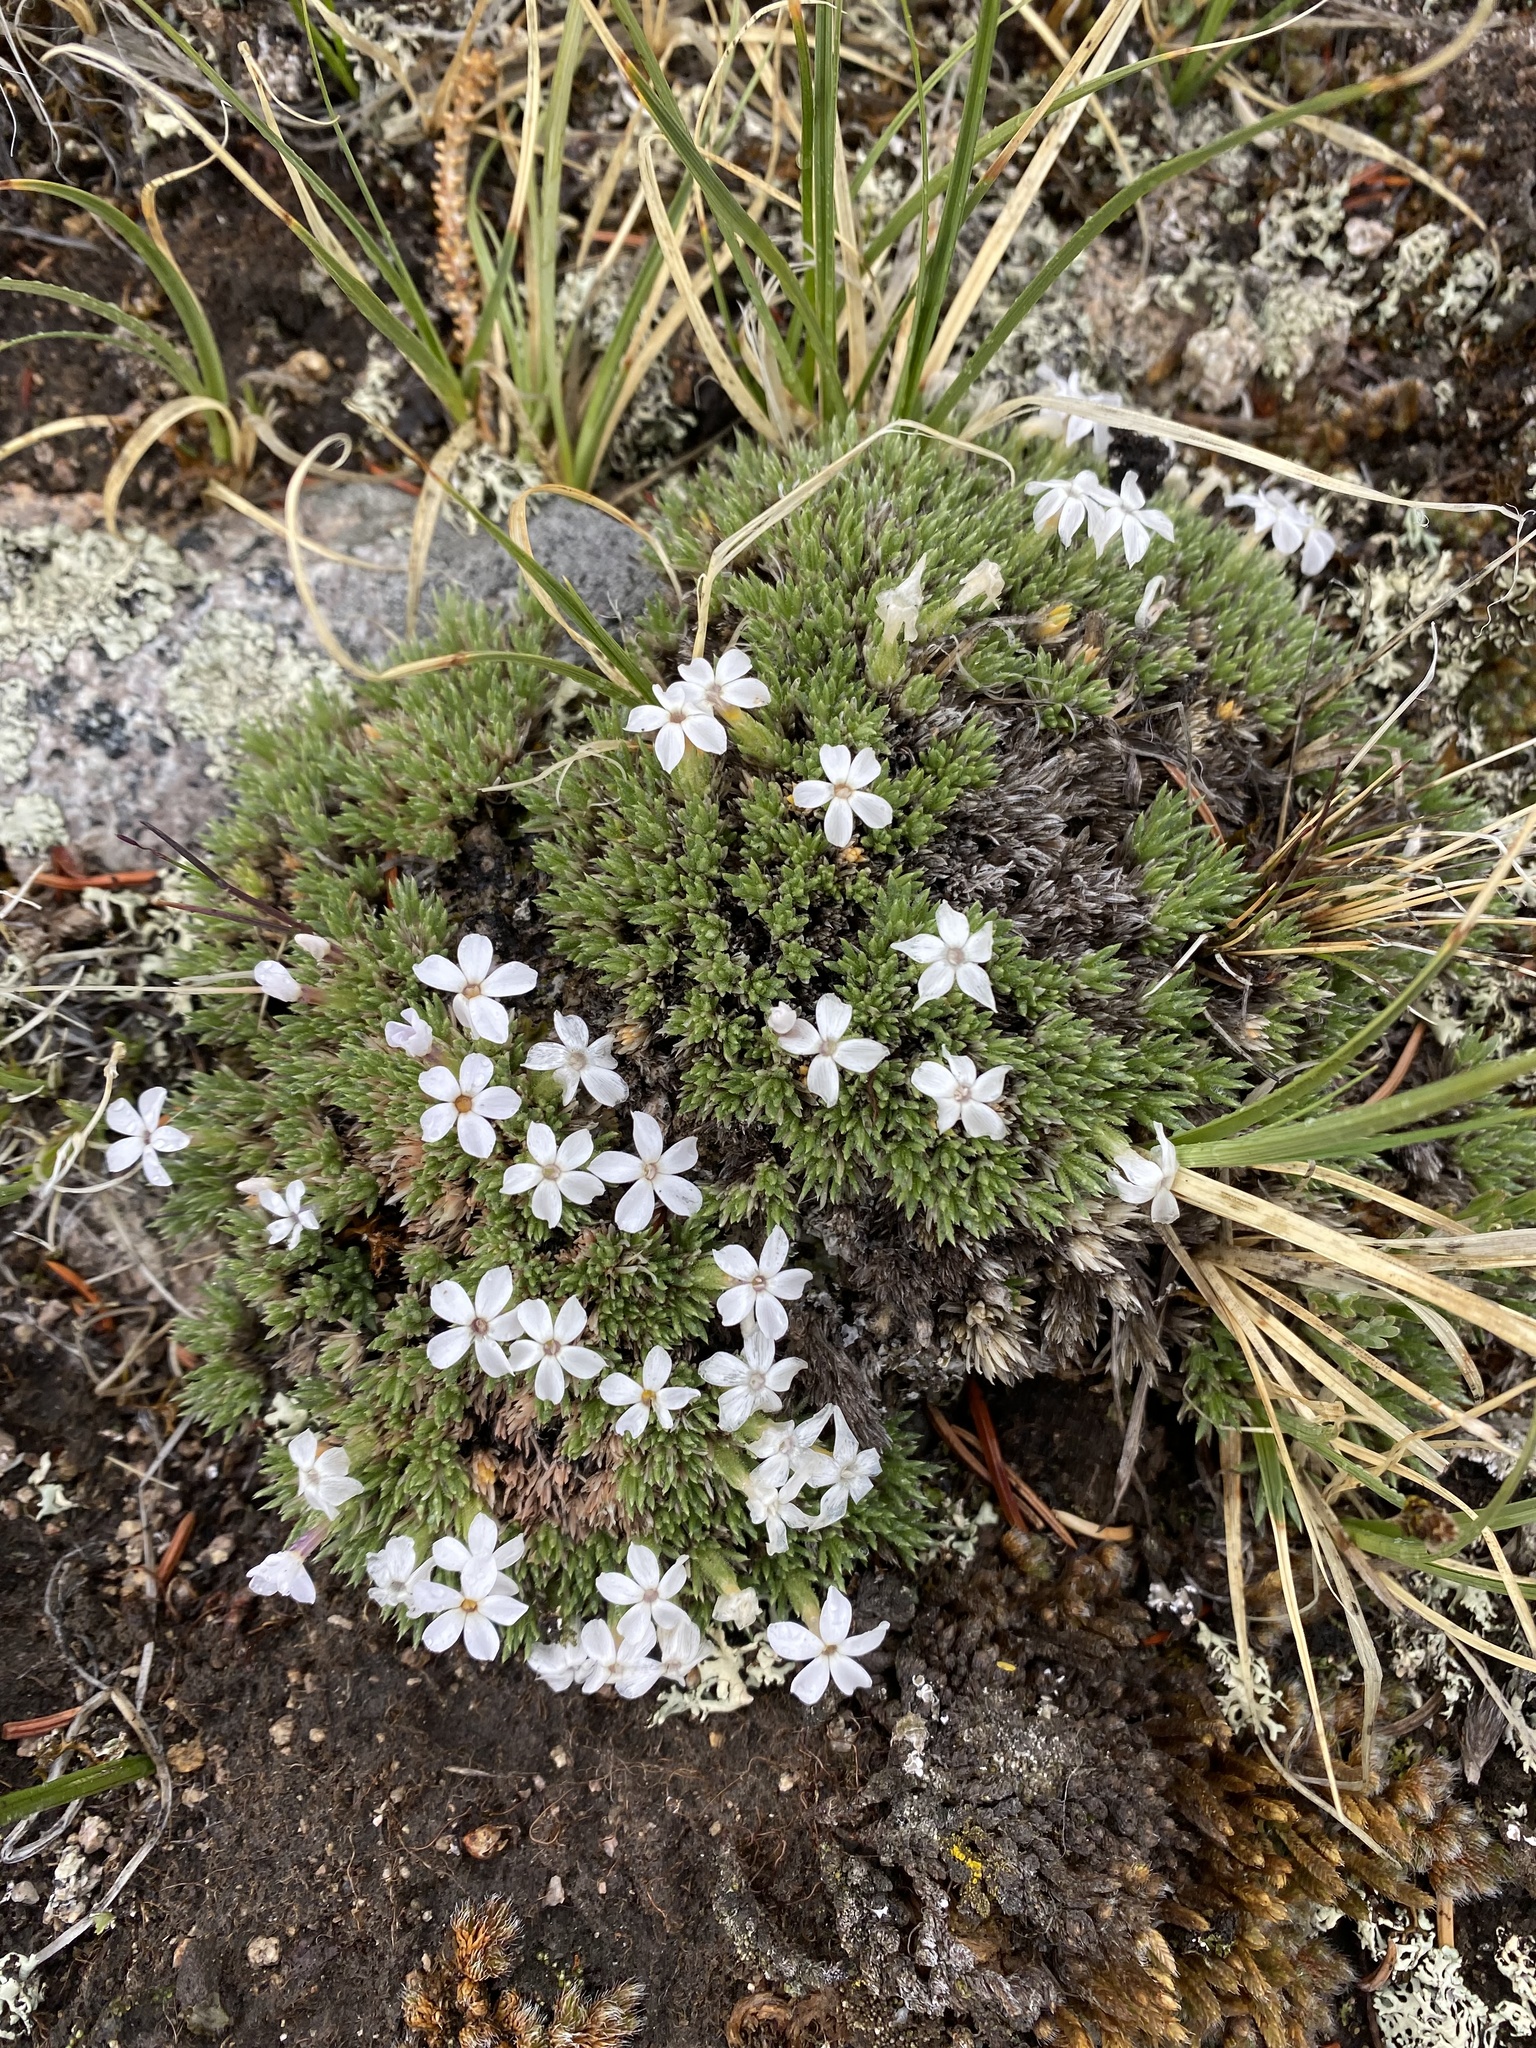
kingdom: Plantae
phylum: Tracheophyta
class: Magnoliopsida
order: Ericales
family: Polemoniaceae
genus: Phlox
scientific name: Phlox condensata
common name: Compact phlox
